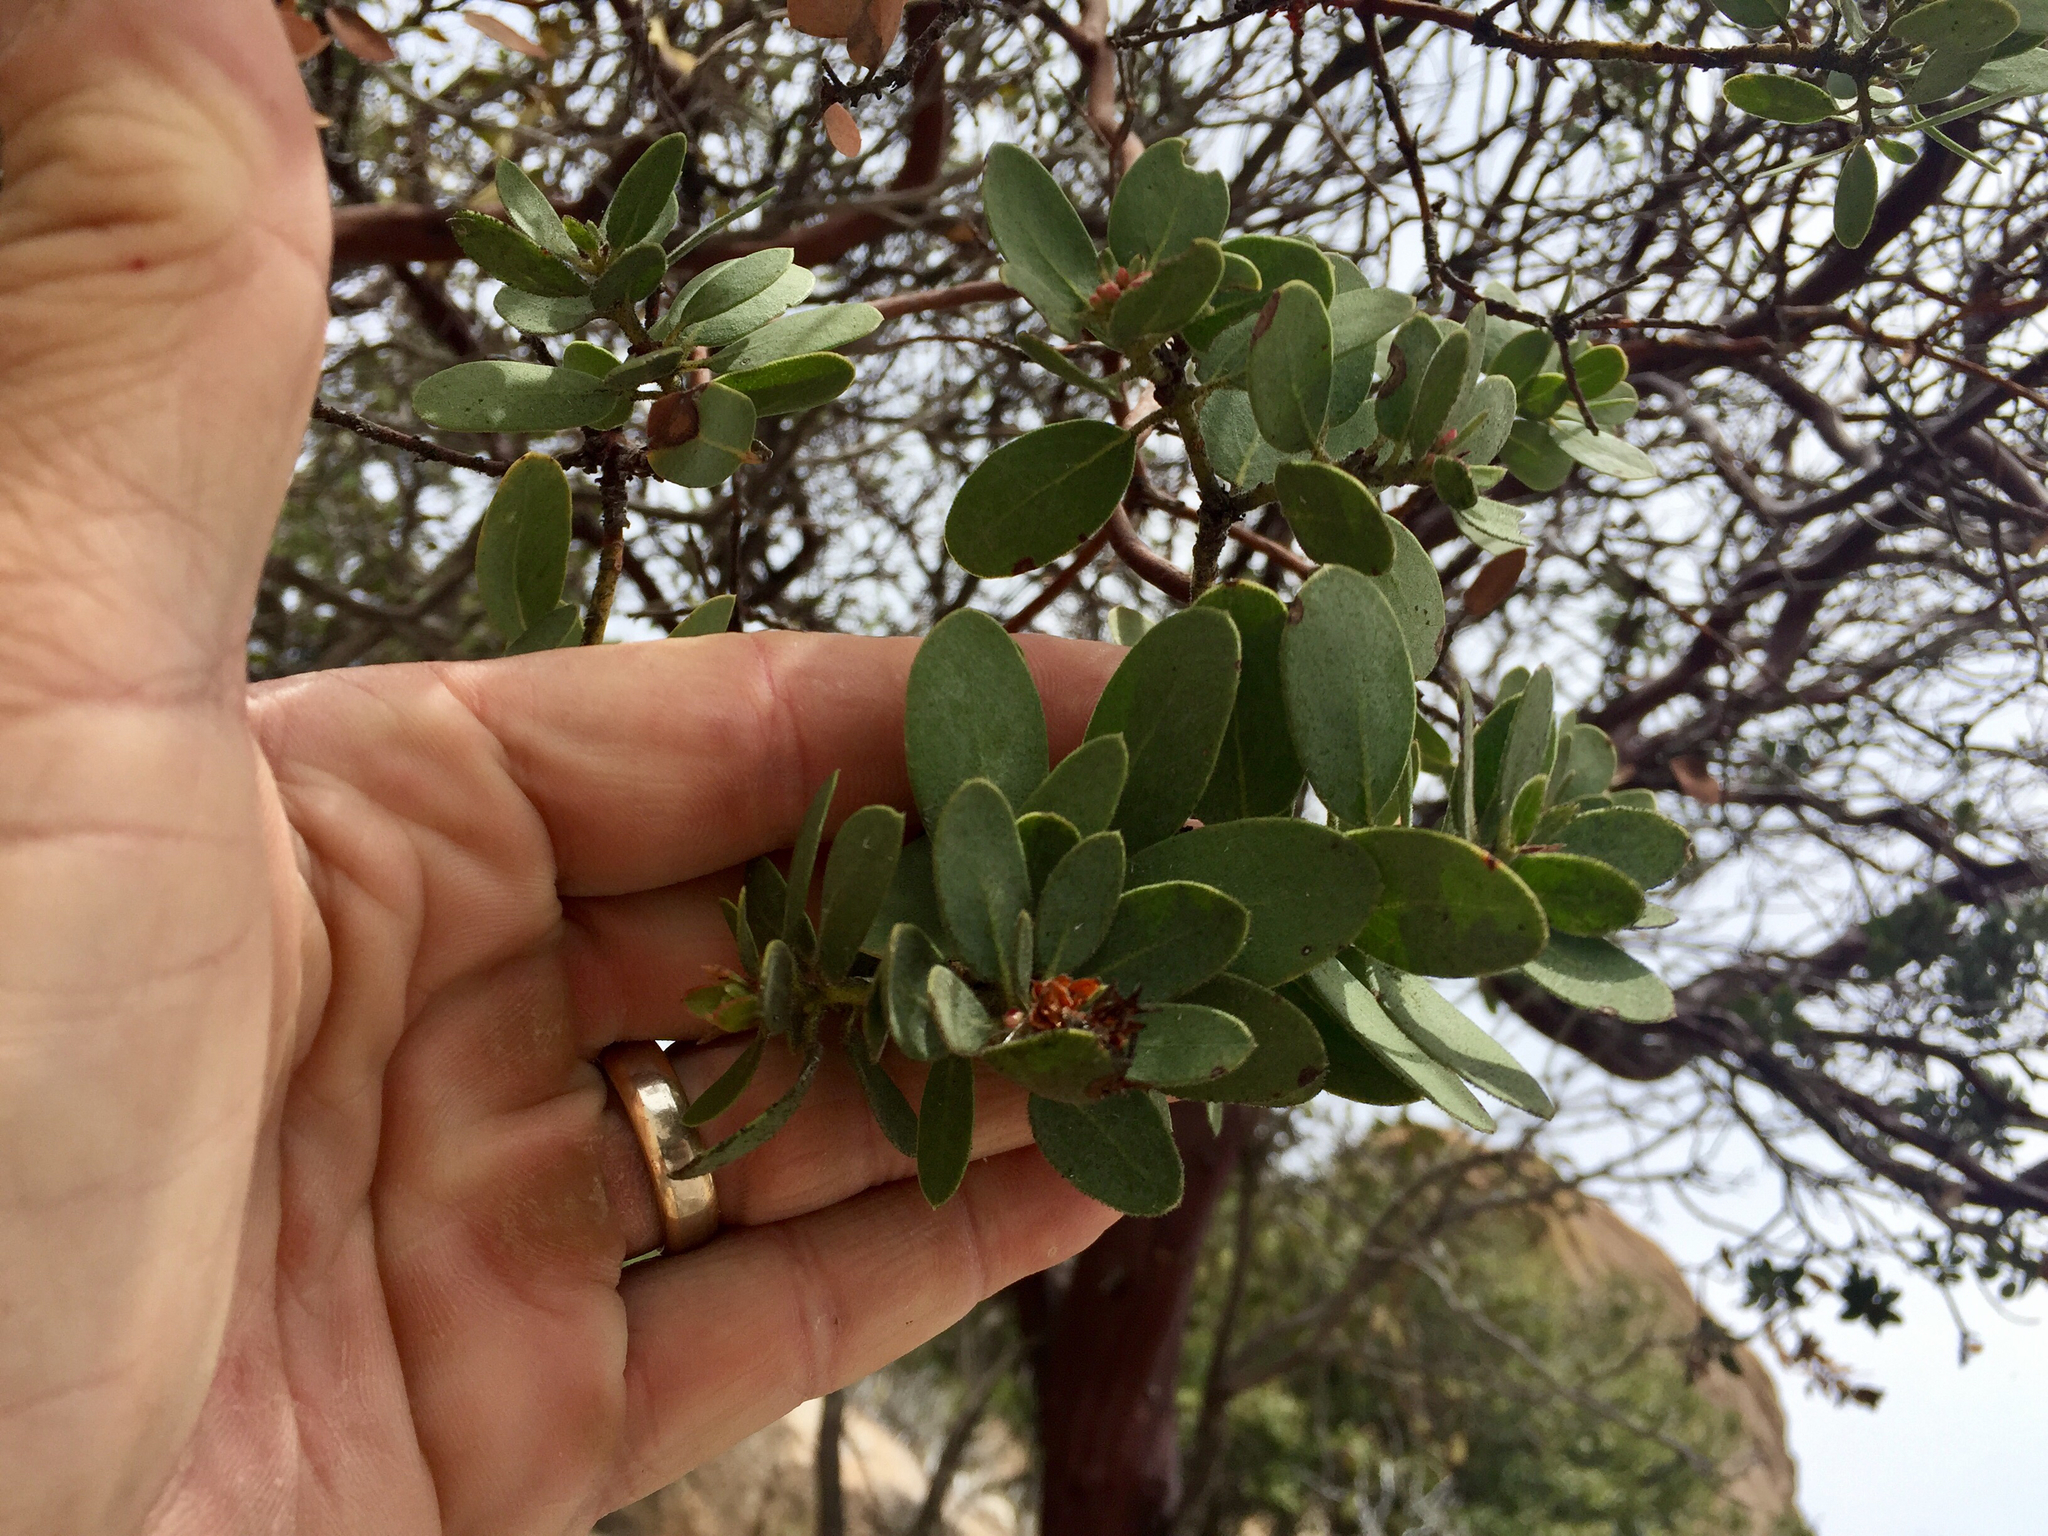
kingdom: Plantae
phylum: Tracheophyta
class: Magnoliopsida
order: Ericales
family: Ericaceae
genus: Arctostaphylos
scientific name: Arctostaphylos pringlei
